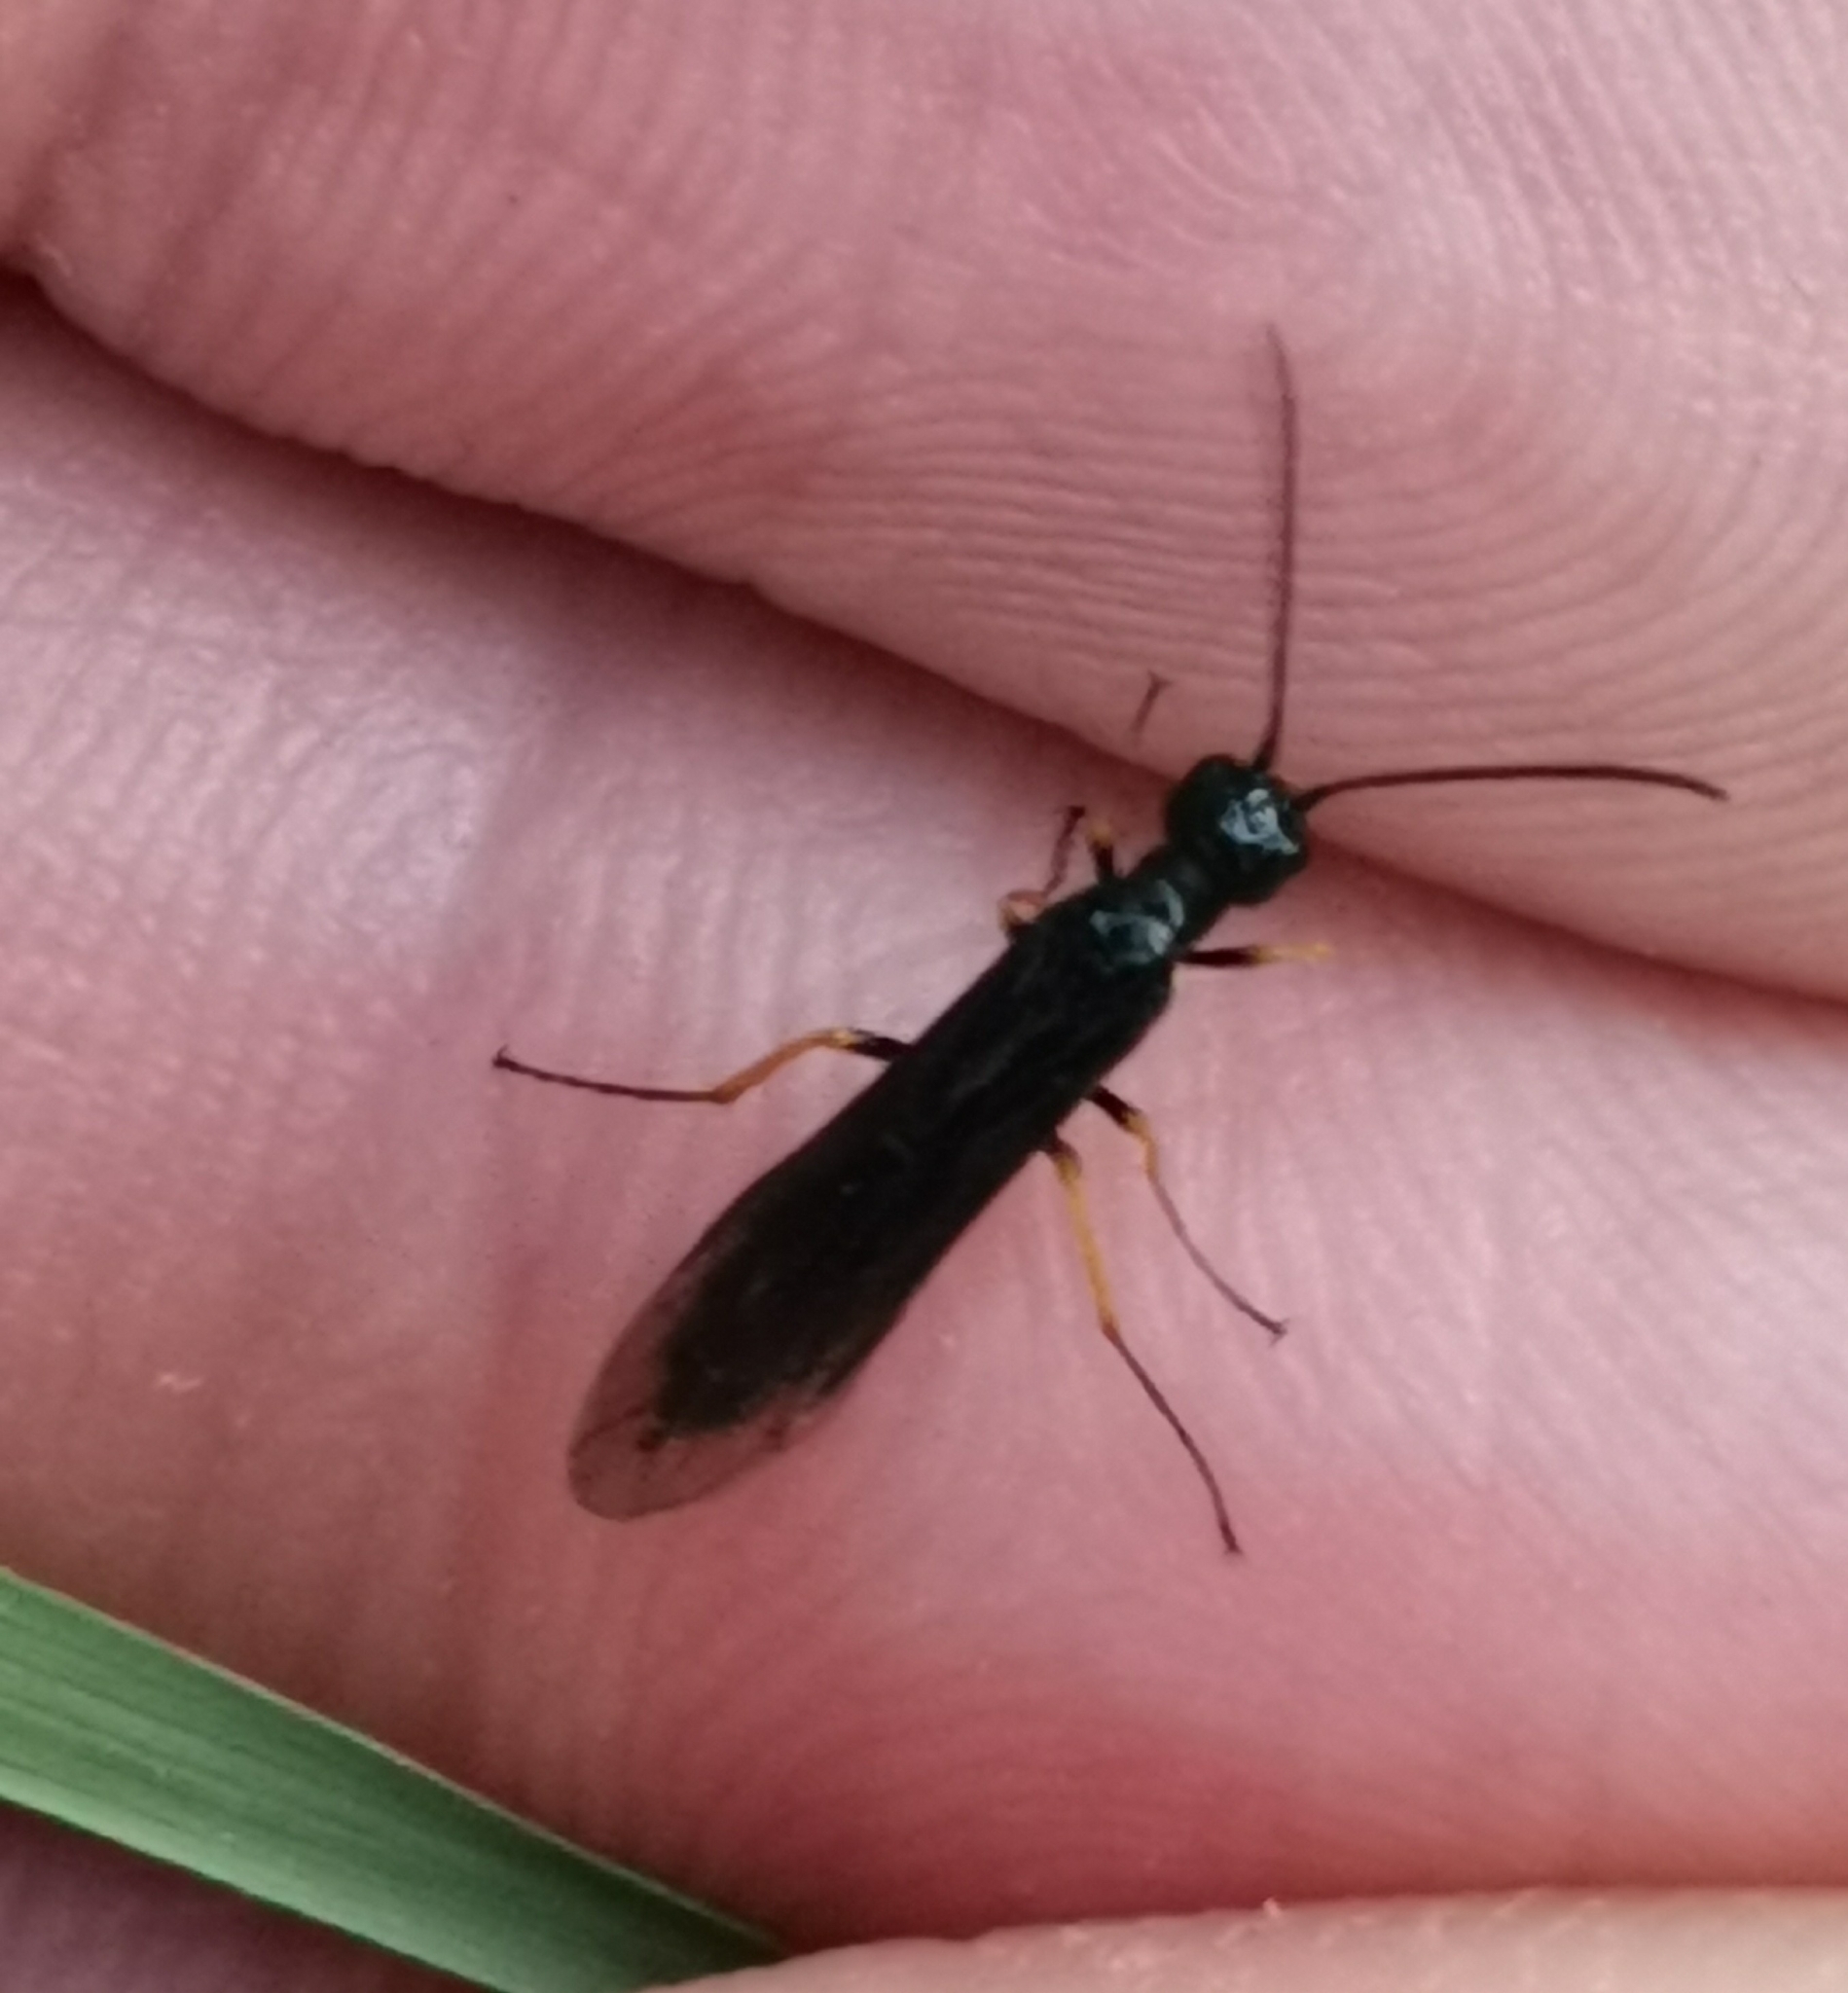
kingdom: Animalia
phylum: Arthropoda
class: Insecta
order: Hymenoptera
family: Cephidae
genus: Cephus
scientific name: Cephus fumipennis
